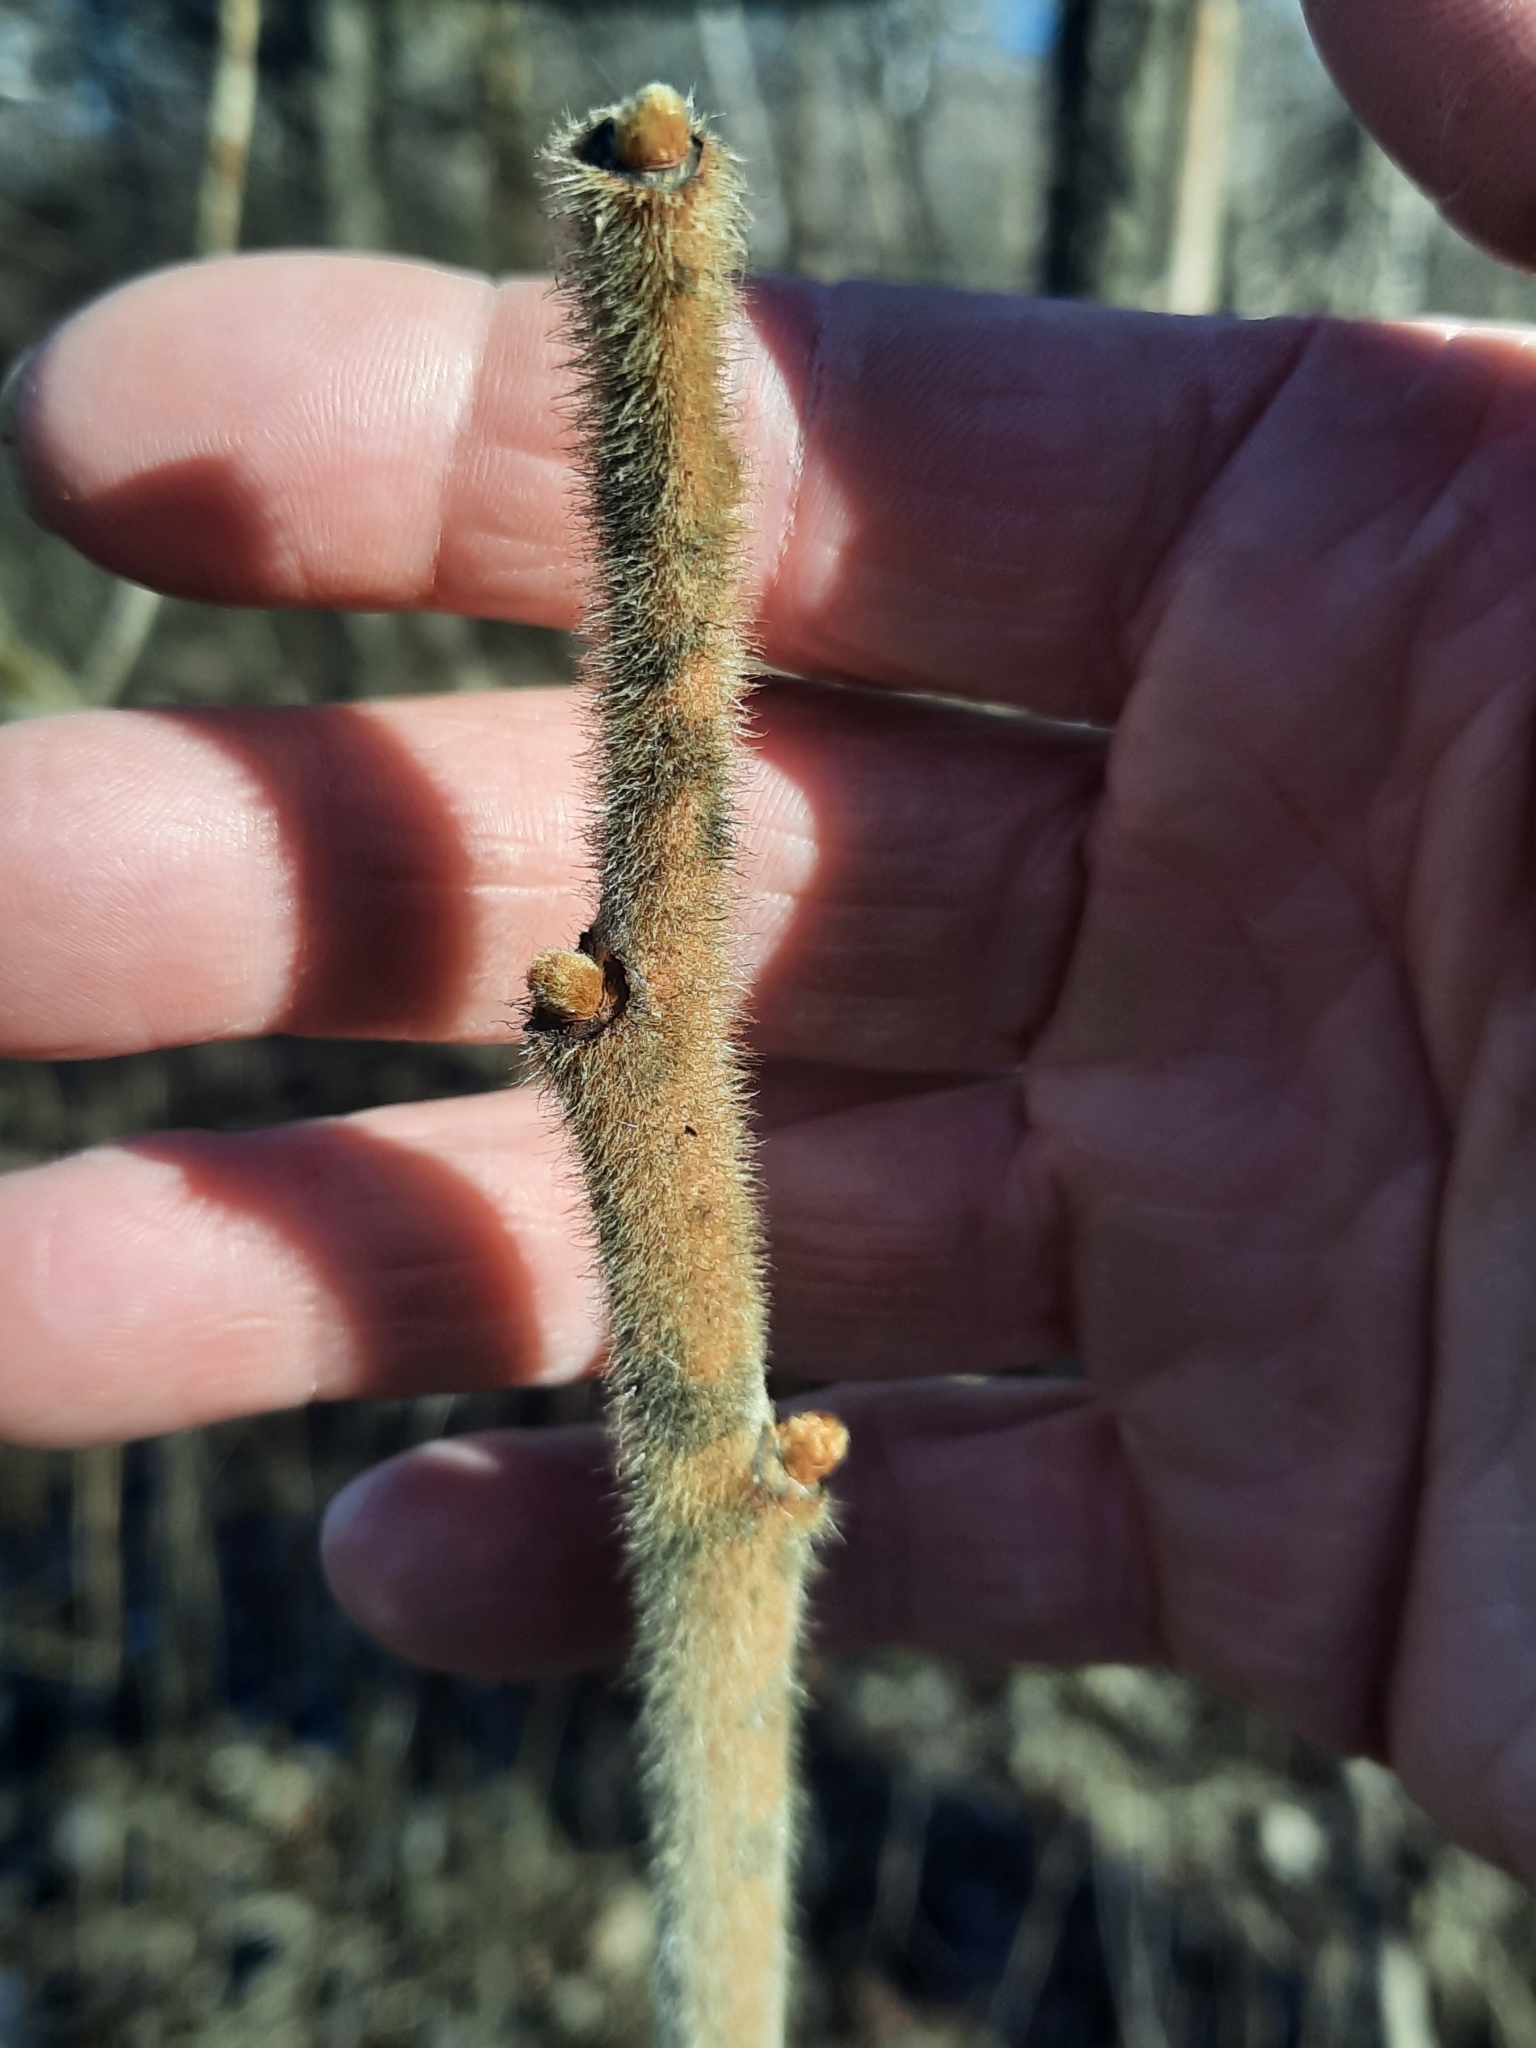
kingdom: Plantae
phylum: Tracheophyta
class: Magnoliopsida
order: Sapindales
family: Anacardiaceae
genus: Rhus
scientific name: Rhus typhina
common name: Staghorn sumac
